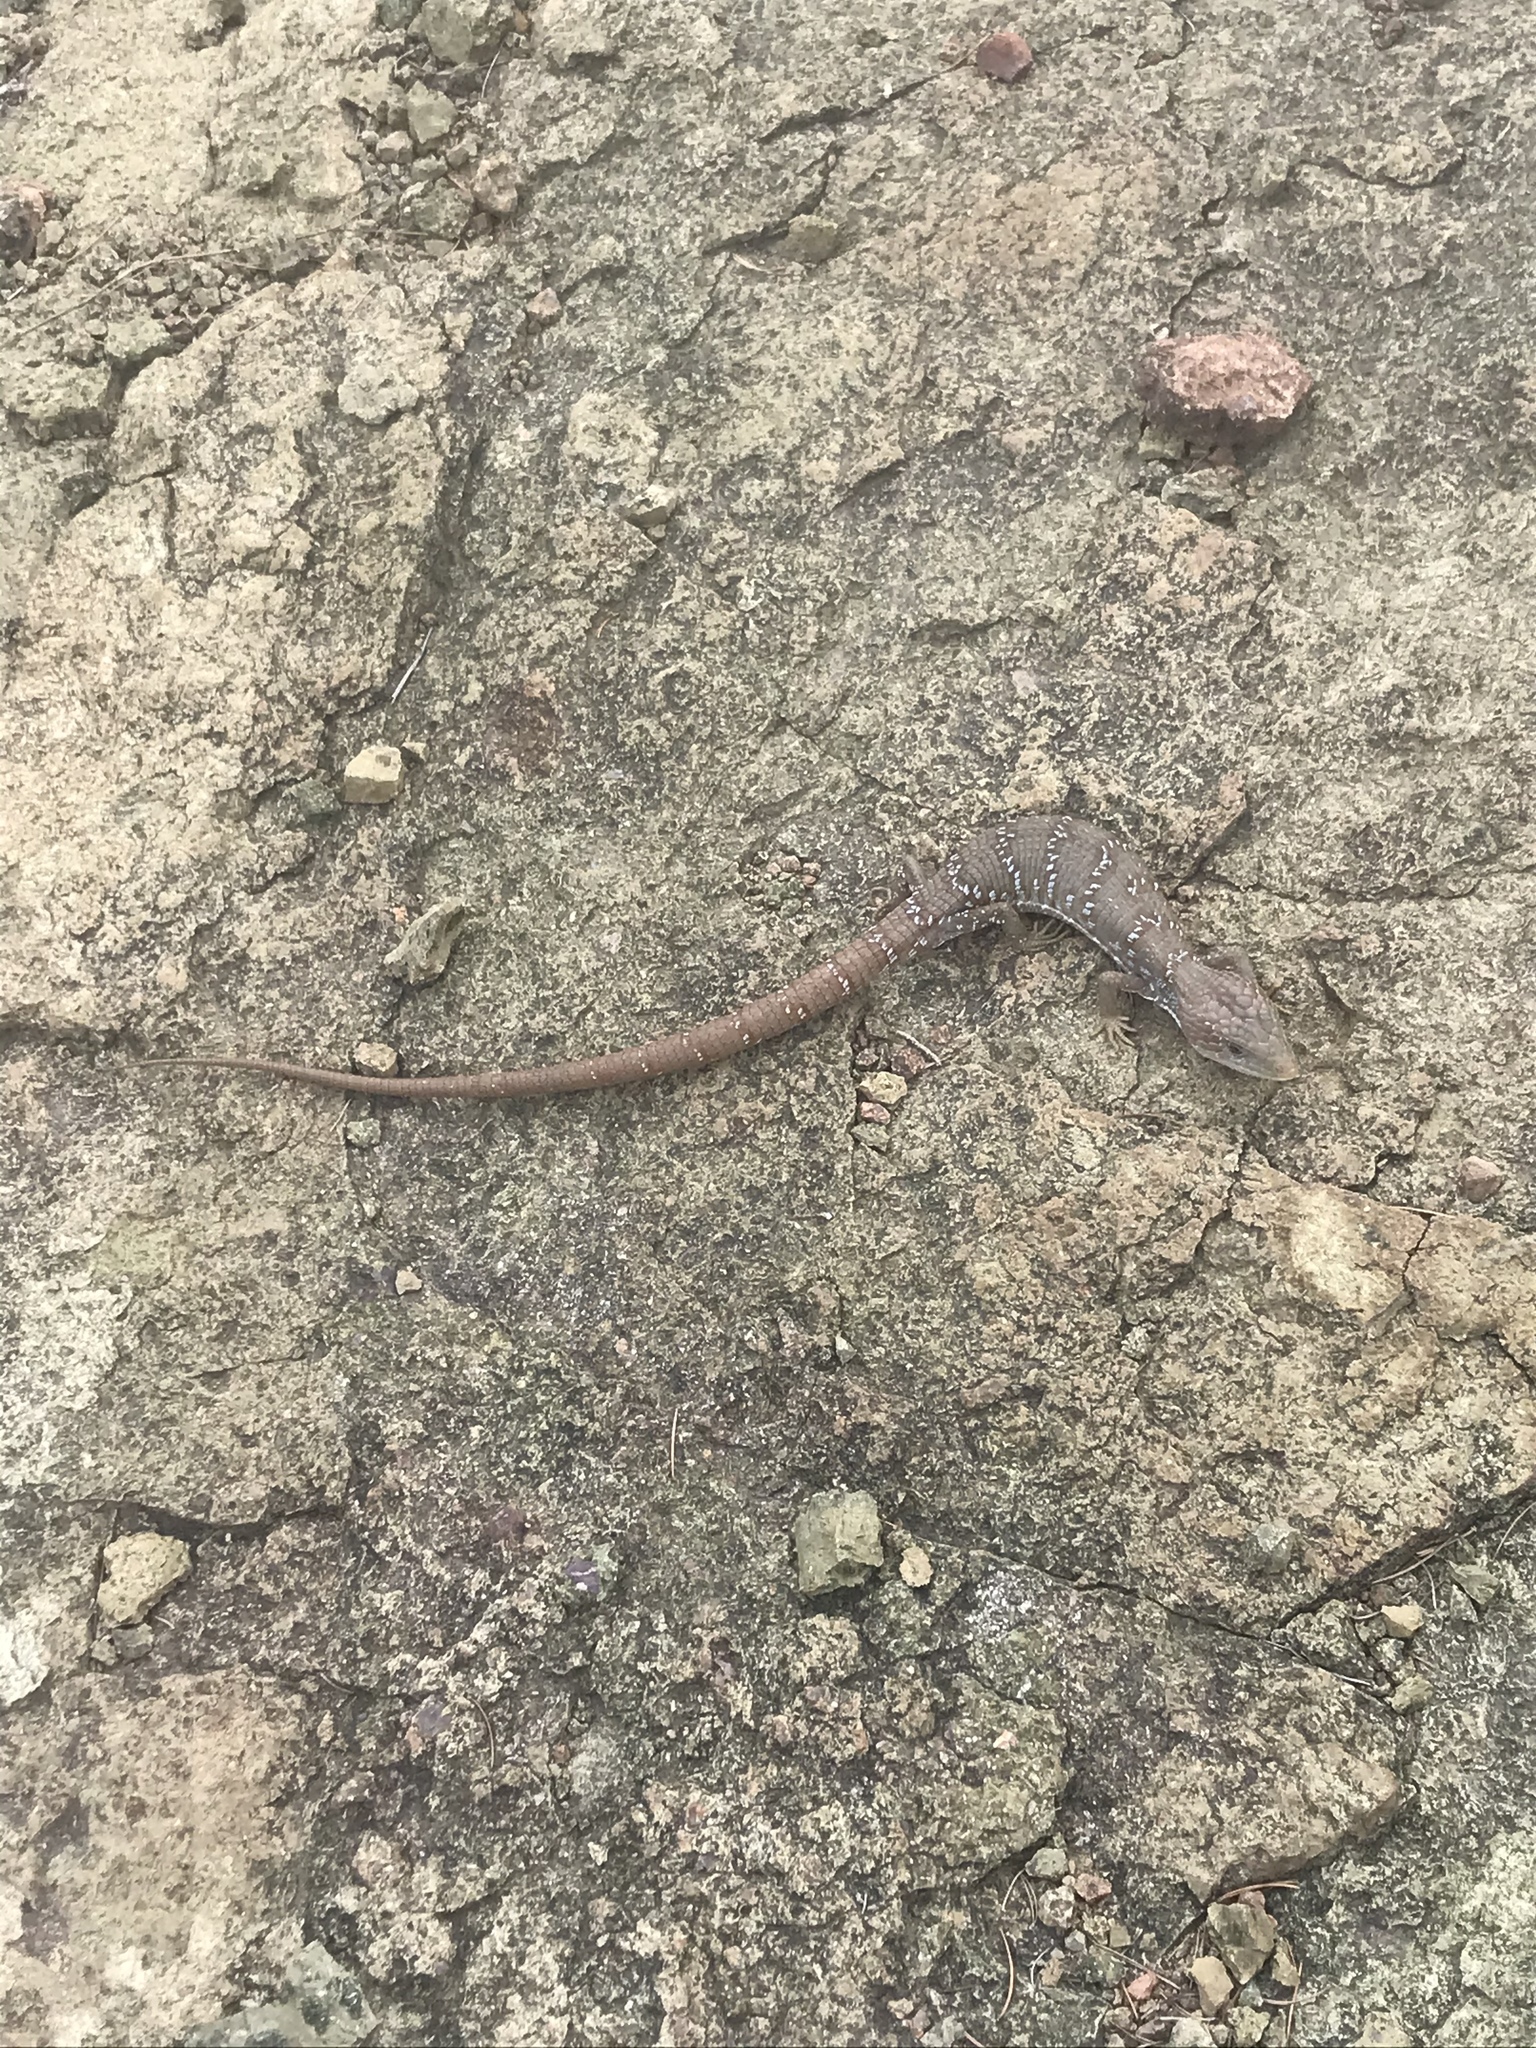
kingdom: Animalia
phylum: Chordata
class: Squamata
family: Anguidae
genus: Gerrhonotus
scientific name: Gerrhonotus infernalis
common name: Texas alligator lizard
